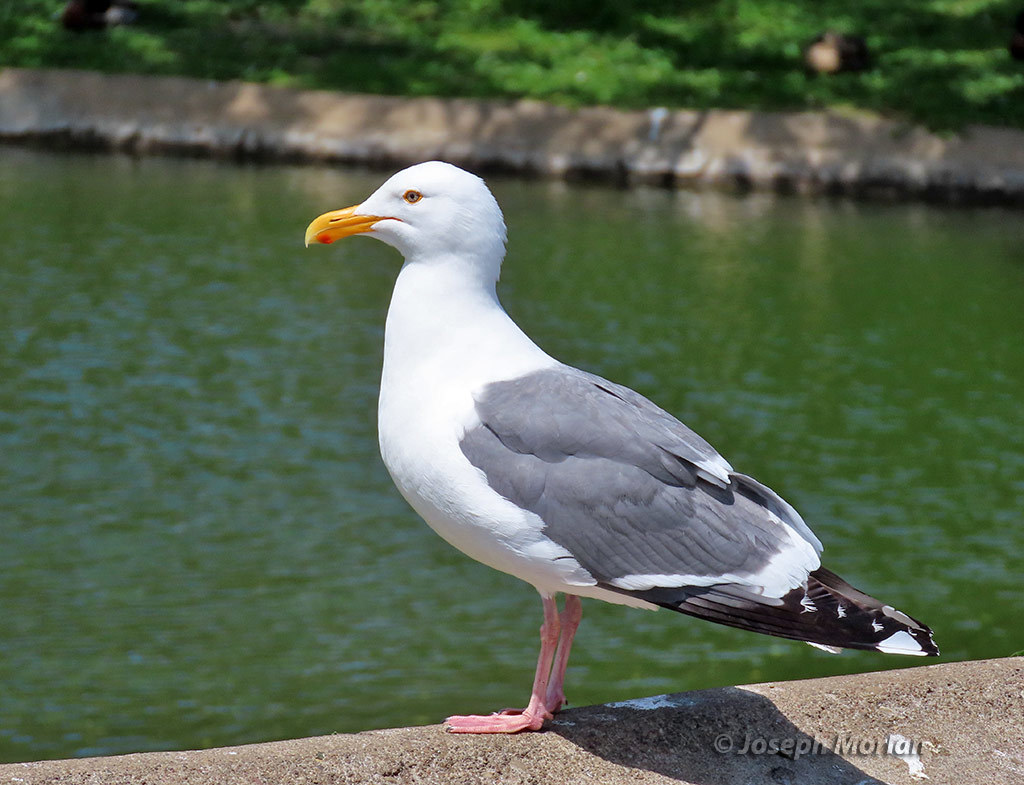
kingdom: Animalia
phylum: Chordata
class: Aves
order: Charadriiformes
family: Laridae
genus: Larus
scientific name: Larus occidentalis
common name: Western gull
